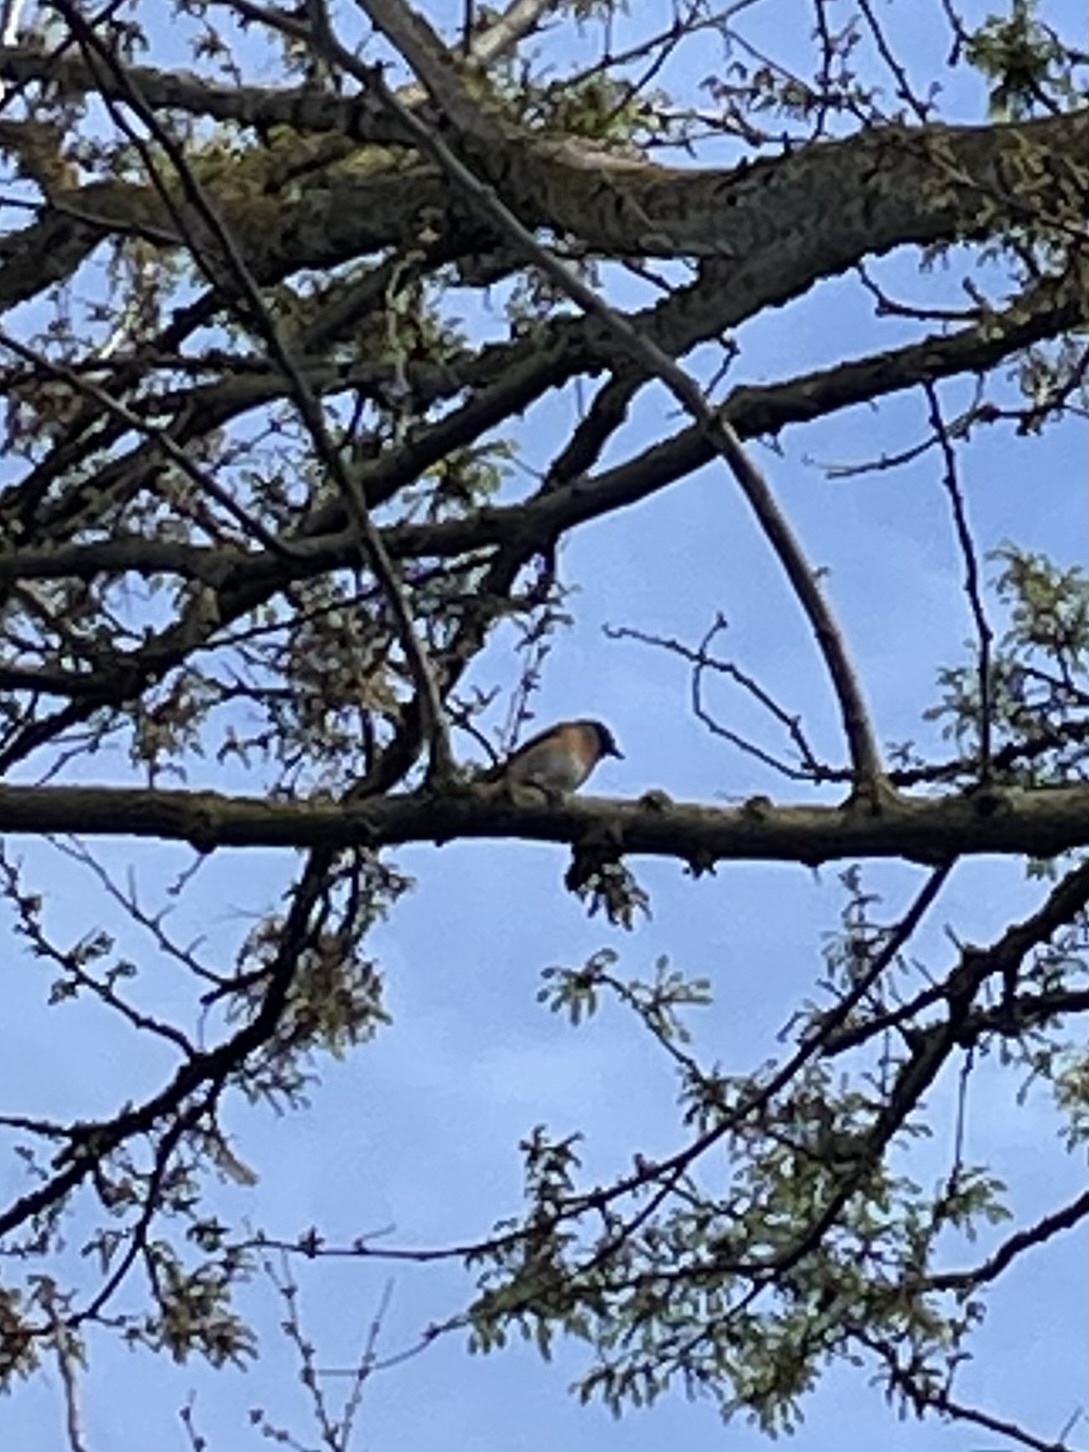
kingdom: Animalia
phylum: Chordata
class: Aves
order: Passeriformes
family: Turdidae
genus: Sialia
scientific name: Sialia mexicana
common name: Western bluebird
